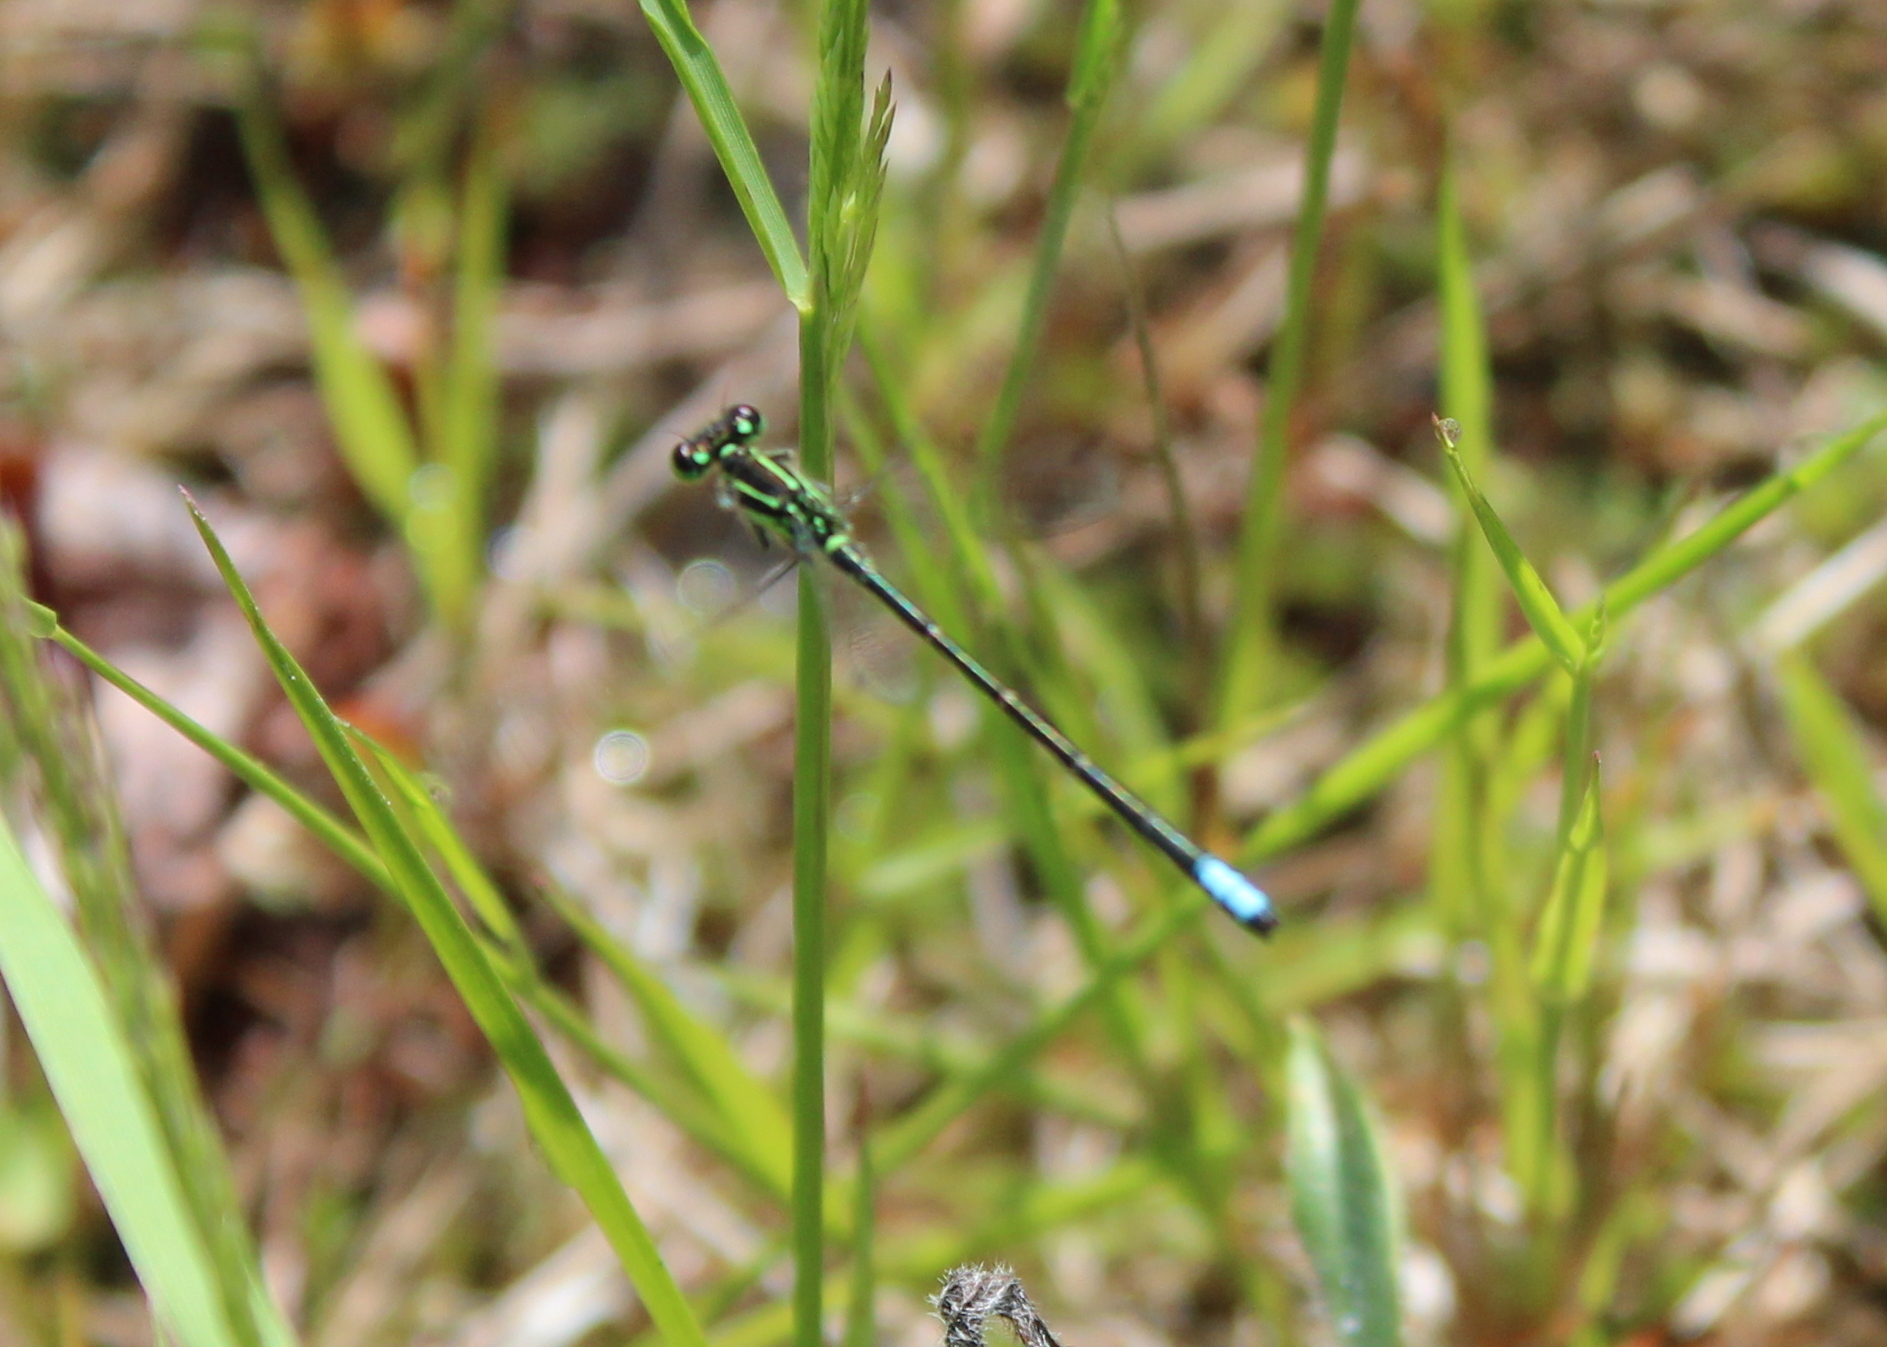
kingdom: Animalia
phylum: Arthropoda
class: Insecta
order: Odonata
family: Coenagrionidae
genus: Ischnura
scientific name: Ischnura verticalis
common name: Eastern forktail
